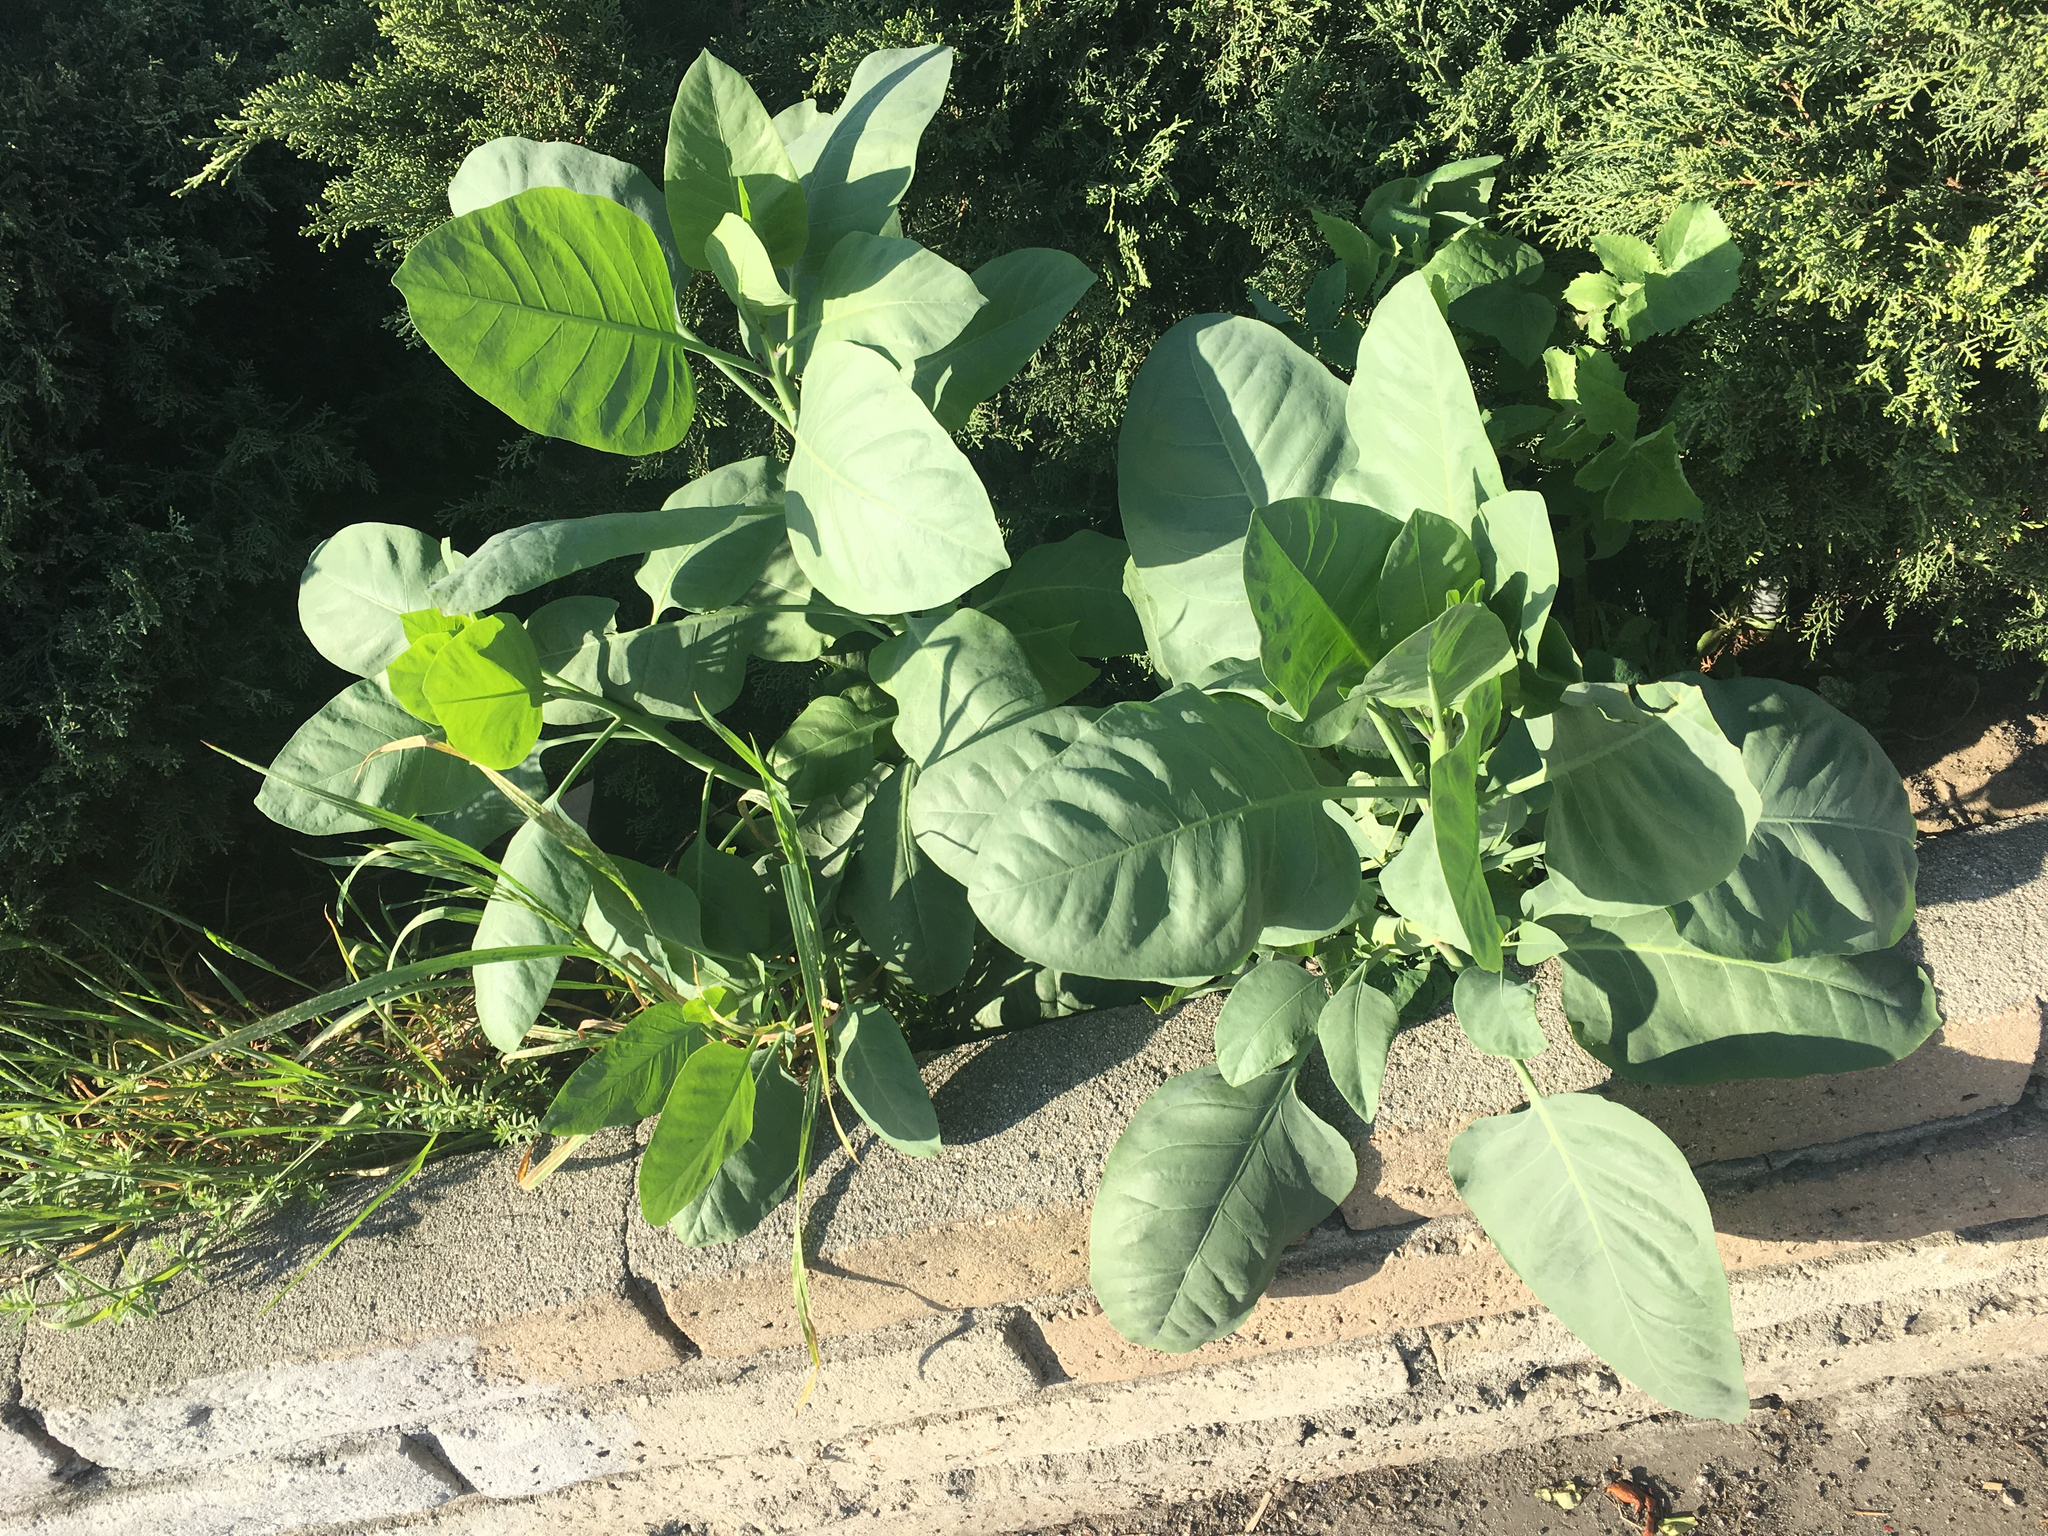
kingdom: Plantae
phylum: Tracheophyta
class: Magnoliopsida
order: Solanales
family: Solanaceae
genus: Nicotiana
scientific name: Nicotiana glauca
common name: Tree tobacco
